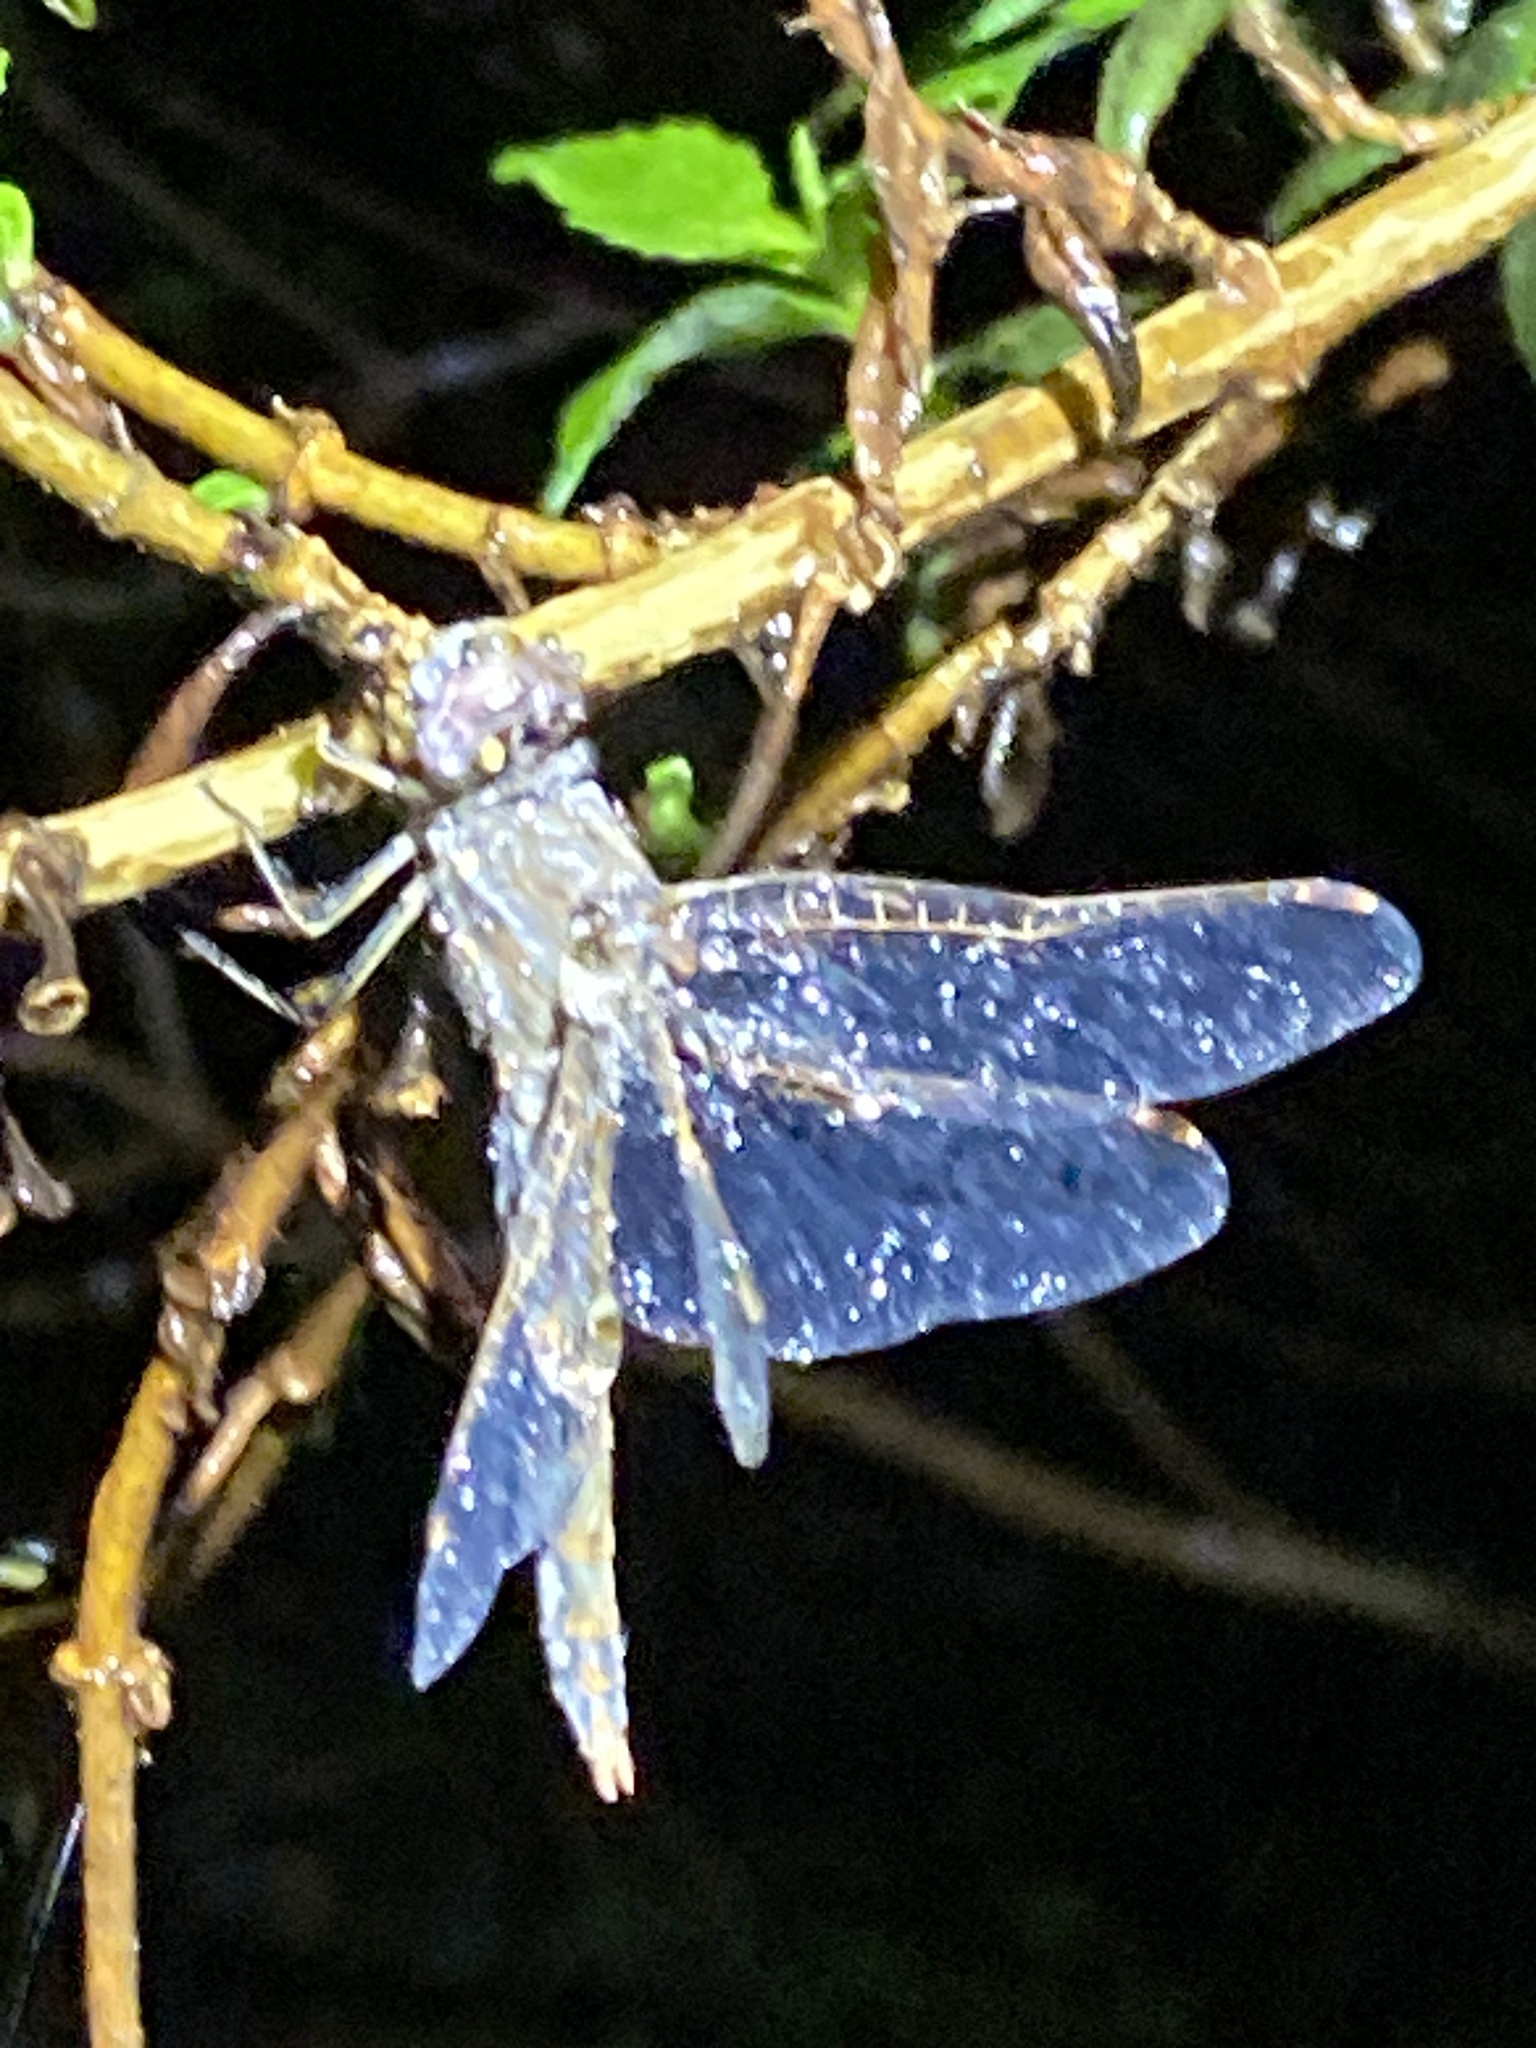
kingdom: Animalia
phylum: Arthropoda
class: Insecta
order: Odonata
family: Libellulidae
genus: Sympetrum
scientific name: Sympetrum corruptum
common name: Variegated meadowhawk
